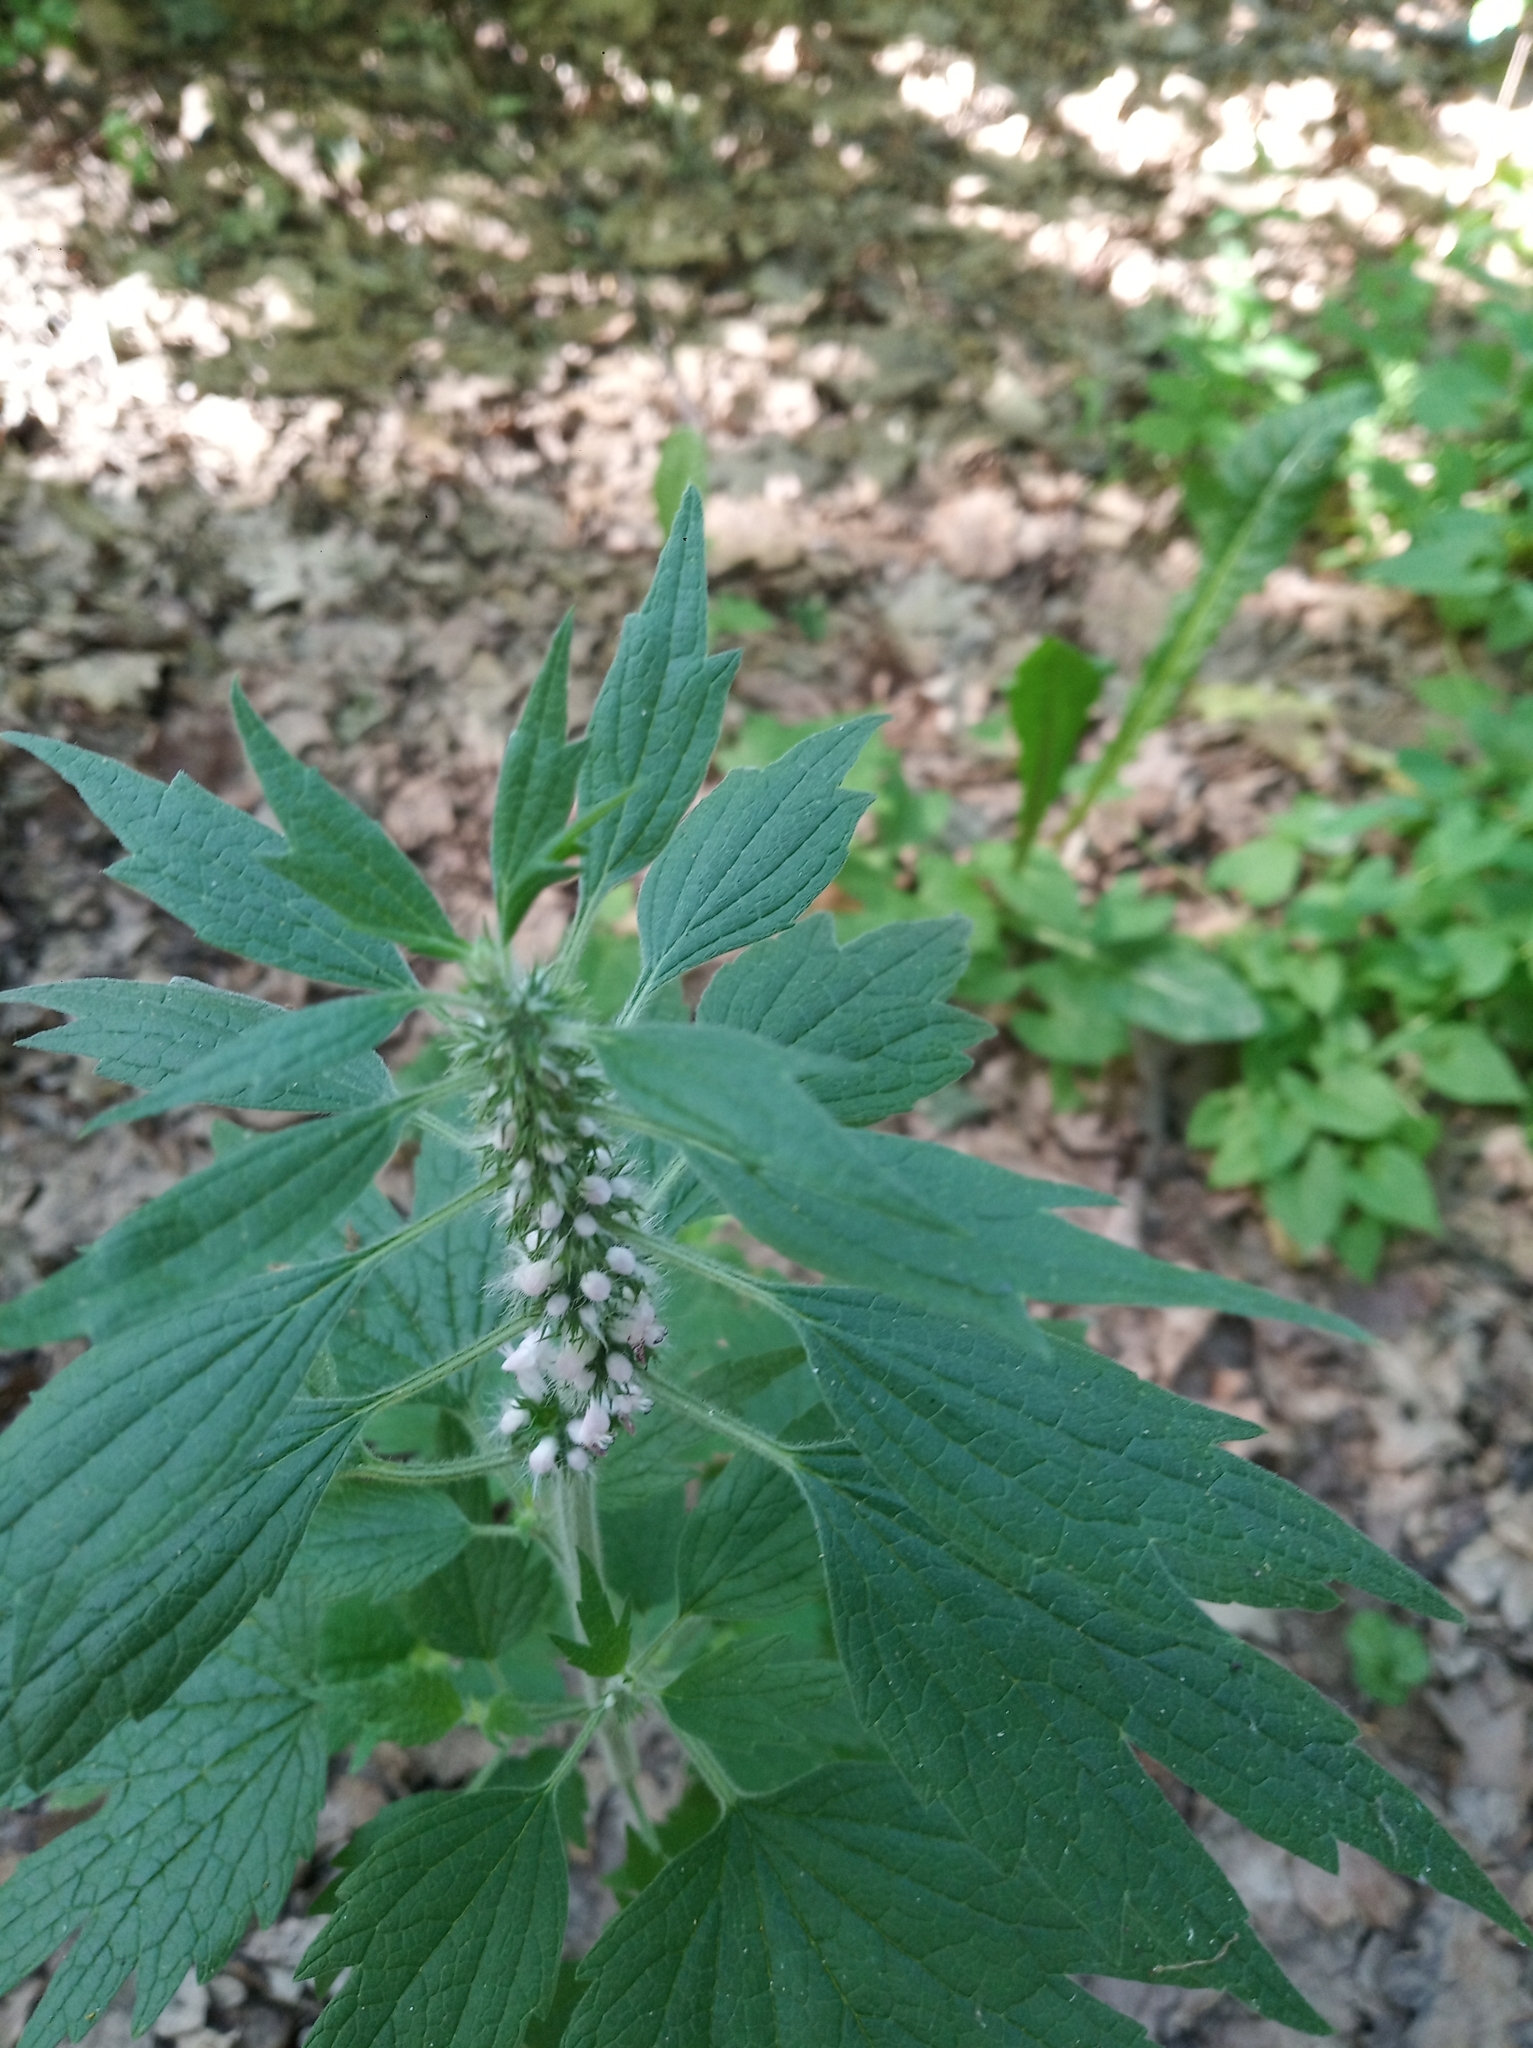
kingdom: Plantae
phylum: Tracheophyta
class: Magnoliopsida
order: Lamiales
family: Lamiaceae
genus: Leonurus
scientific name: Leonurus quinquelobatus
